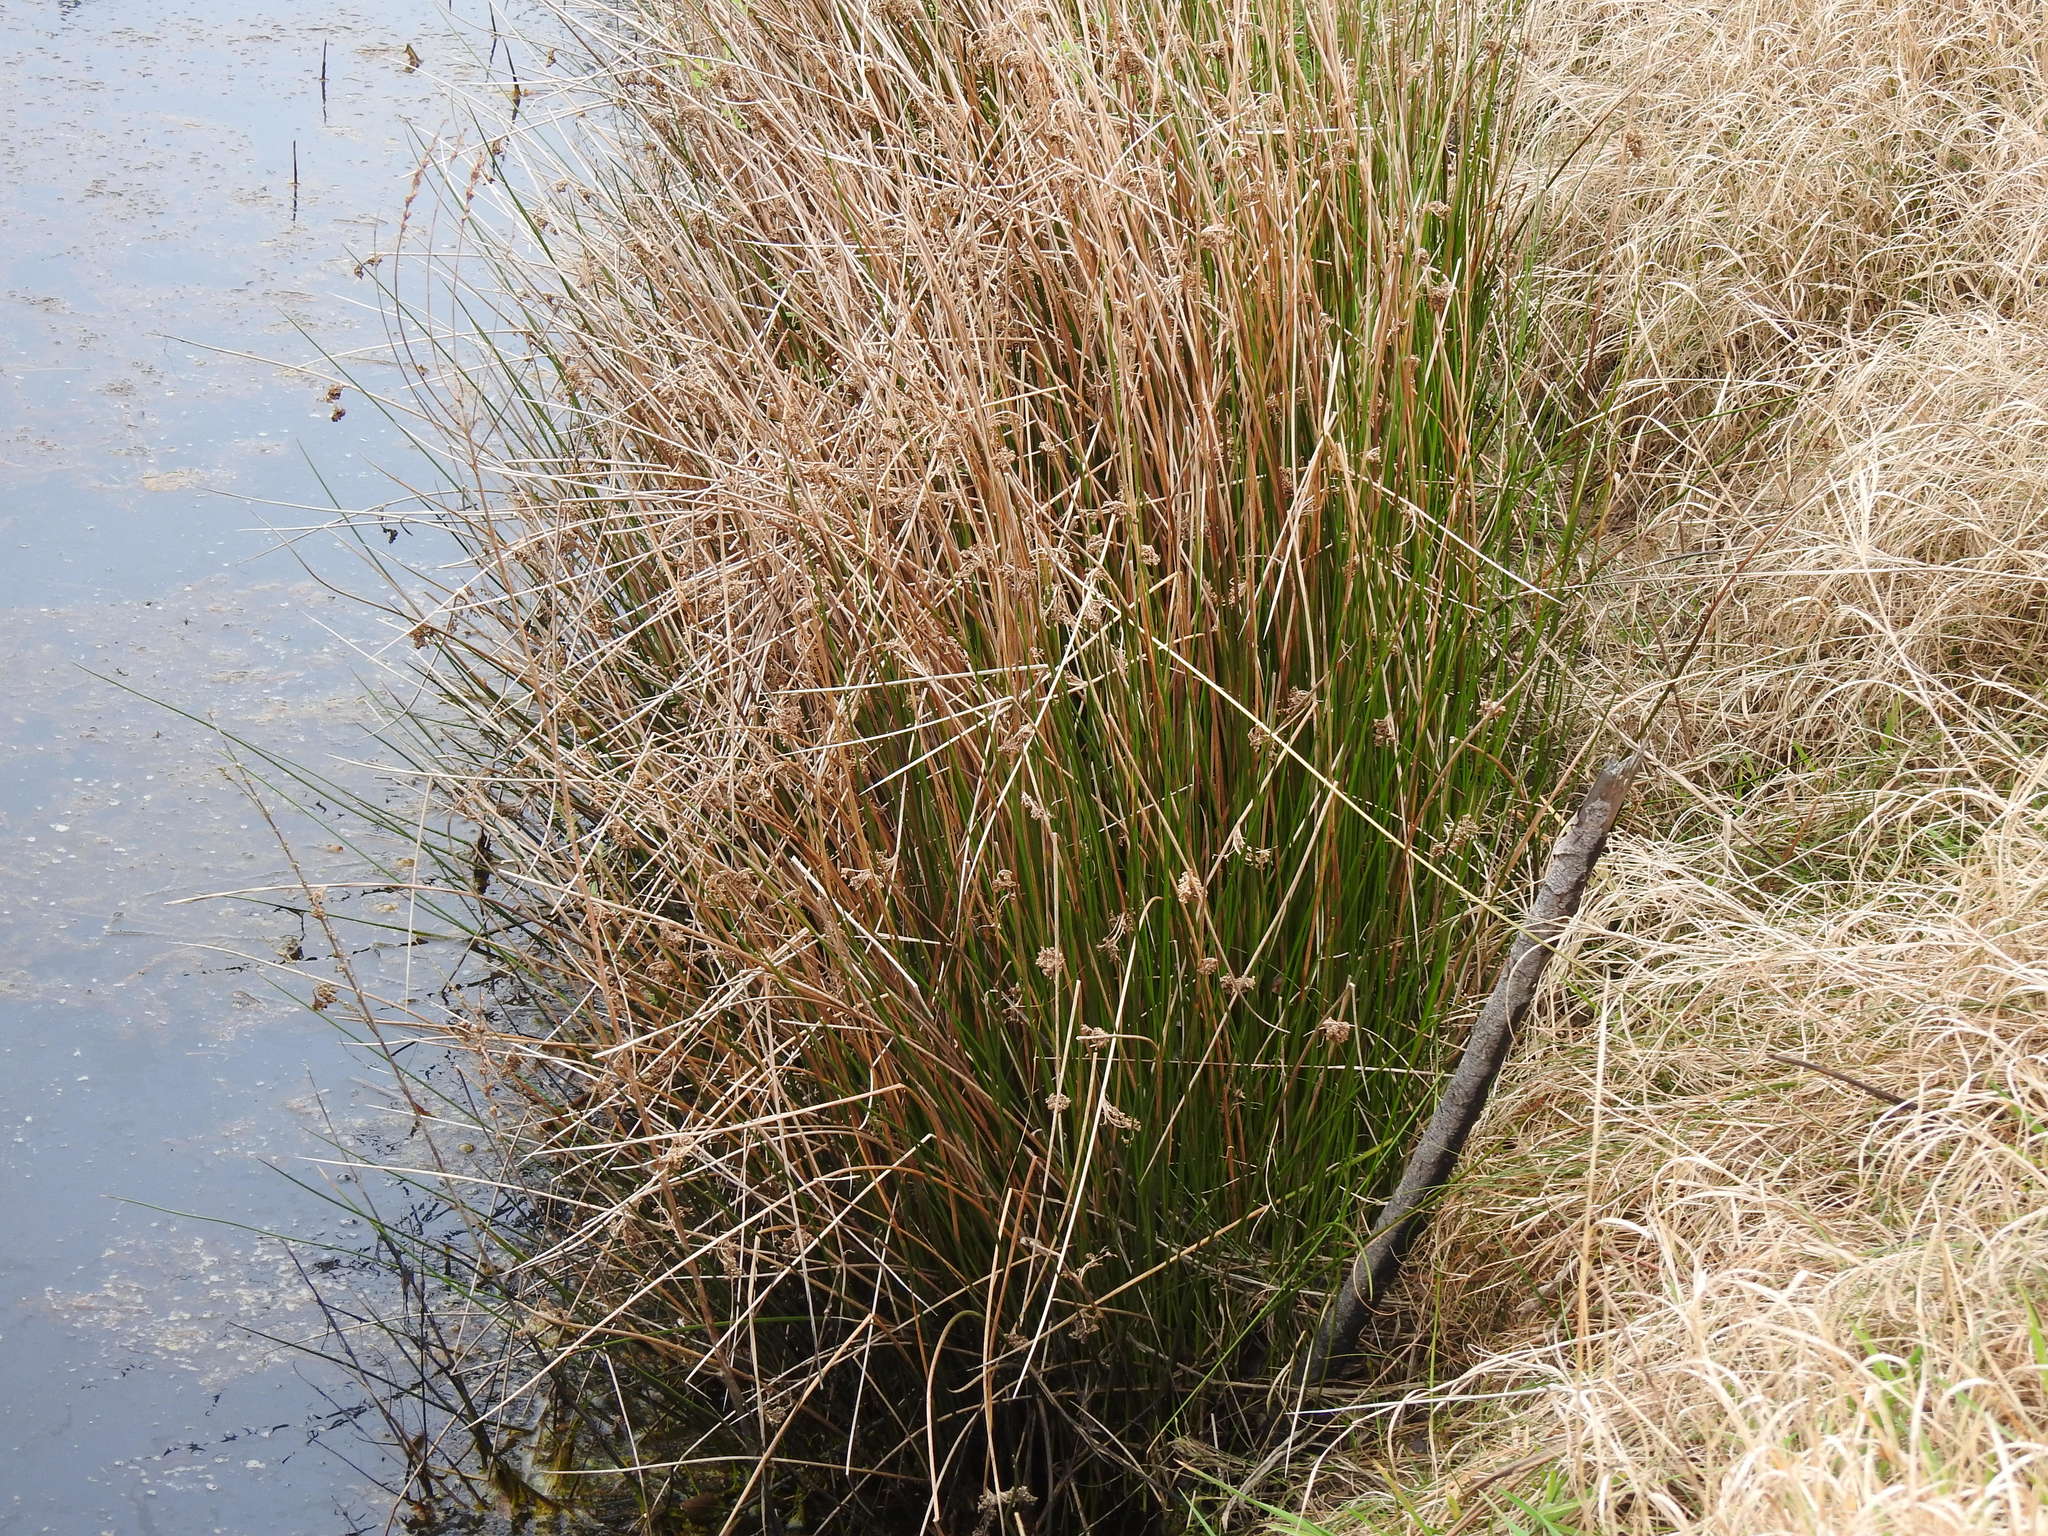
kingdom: Plantae
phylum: Tracheophyta
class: Liliopsida
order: Poales
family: Juncaceae
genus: Juncus
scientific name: Juncus effusus
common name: Soft rush
